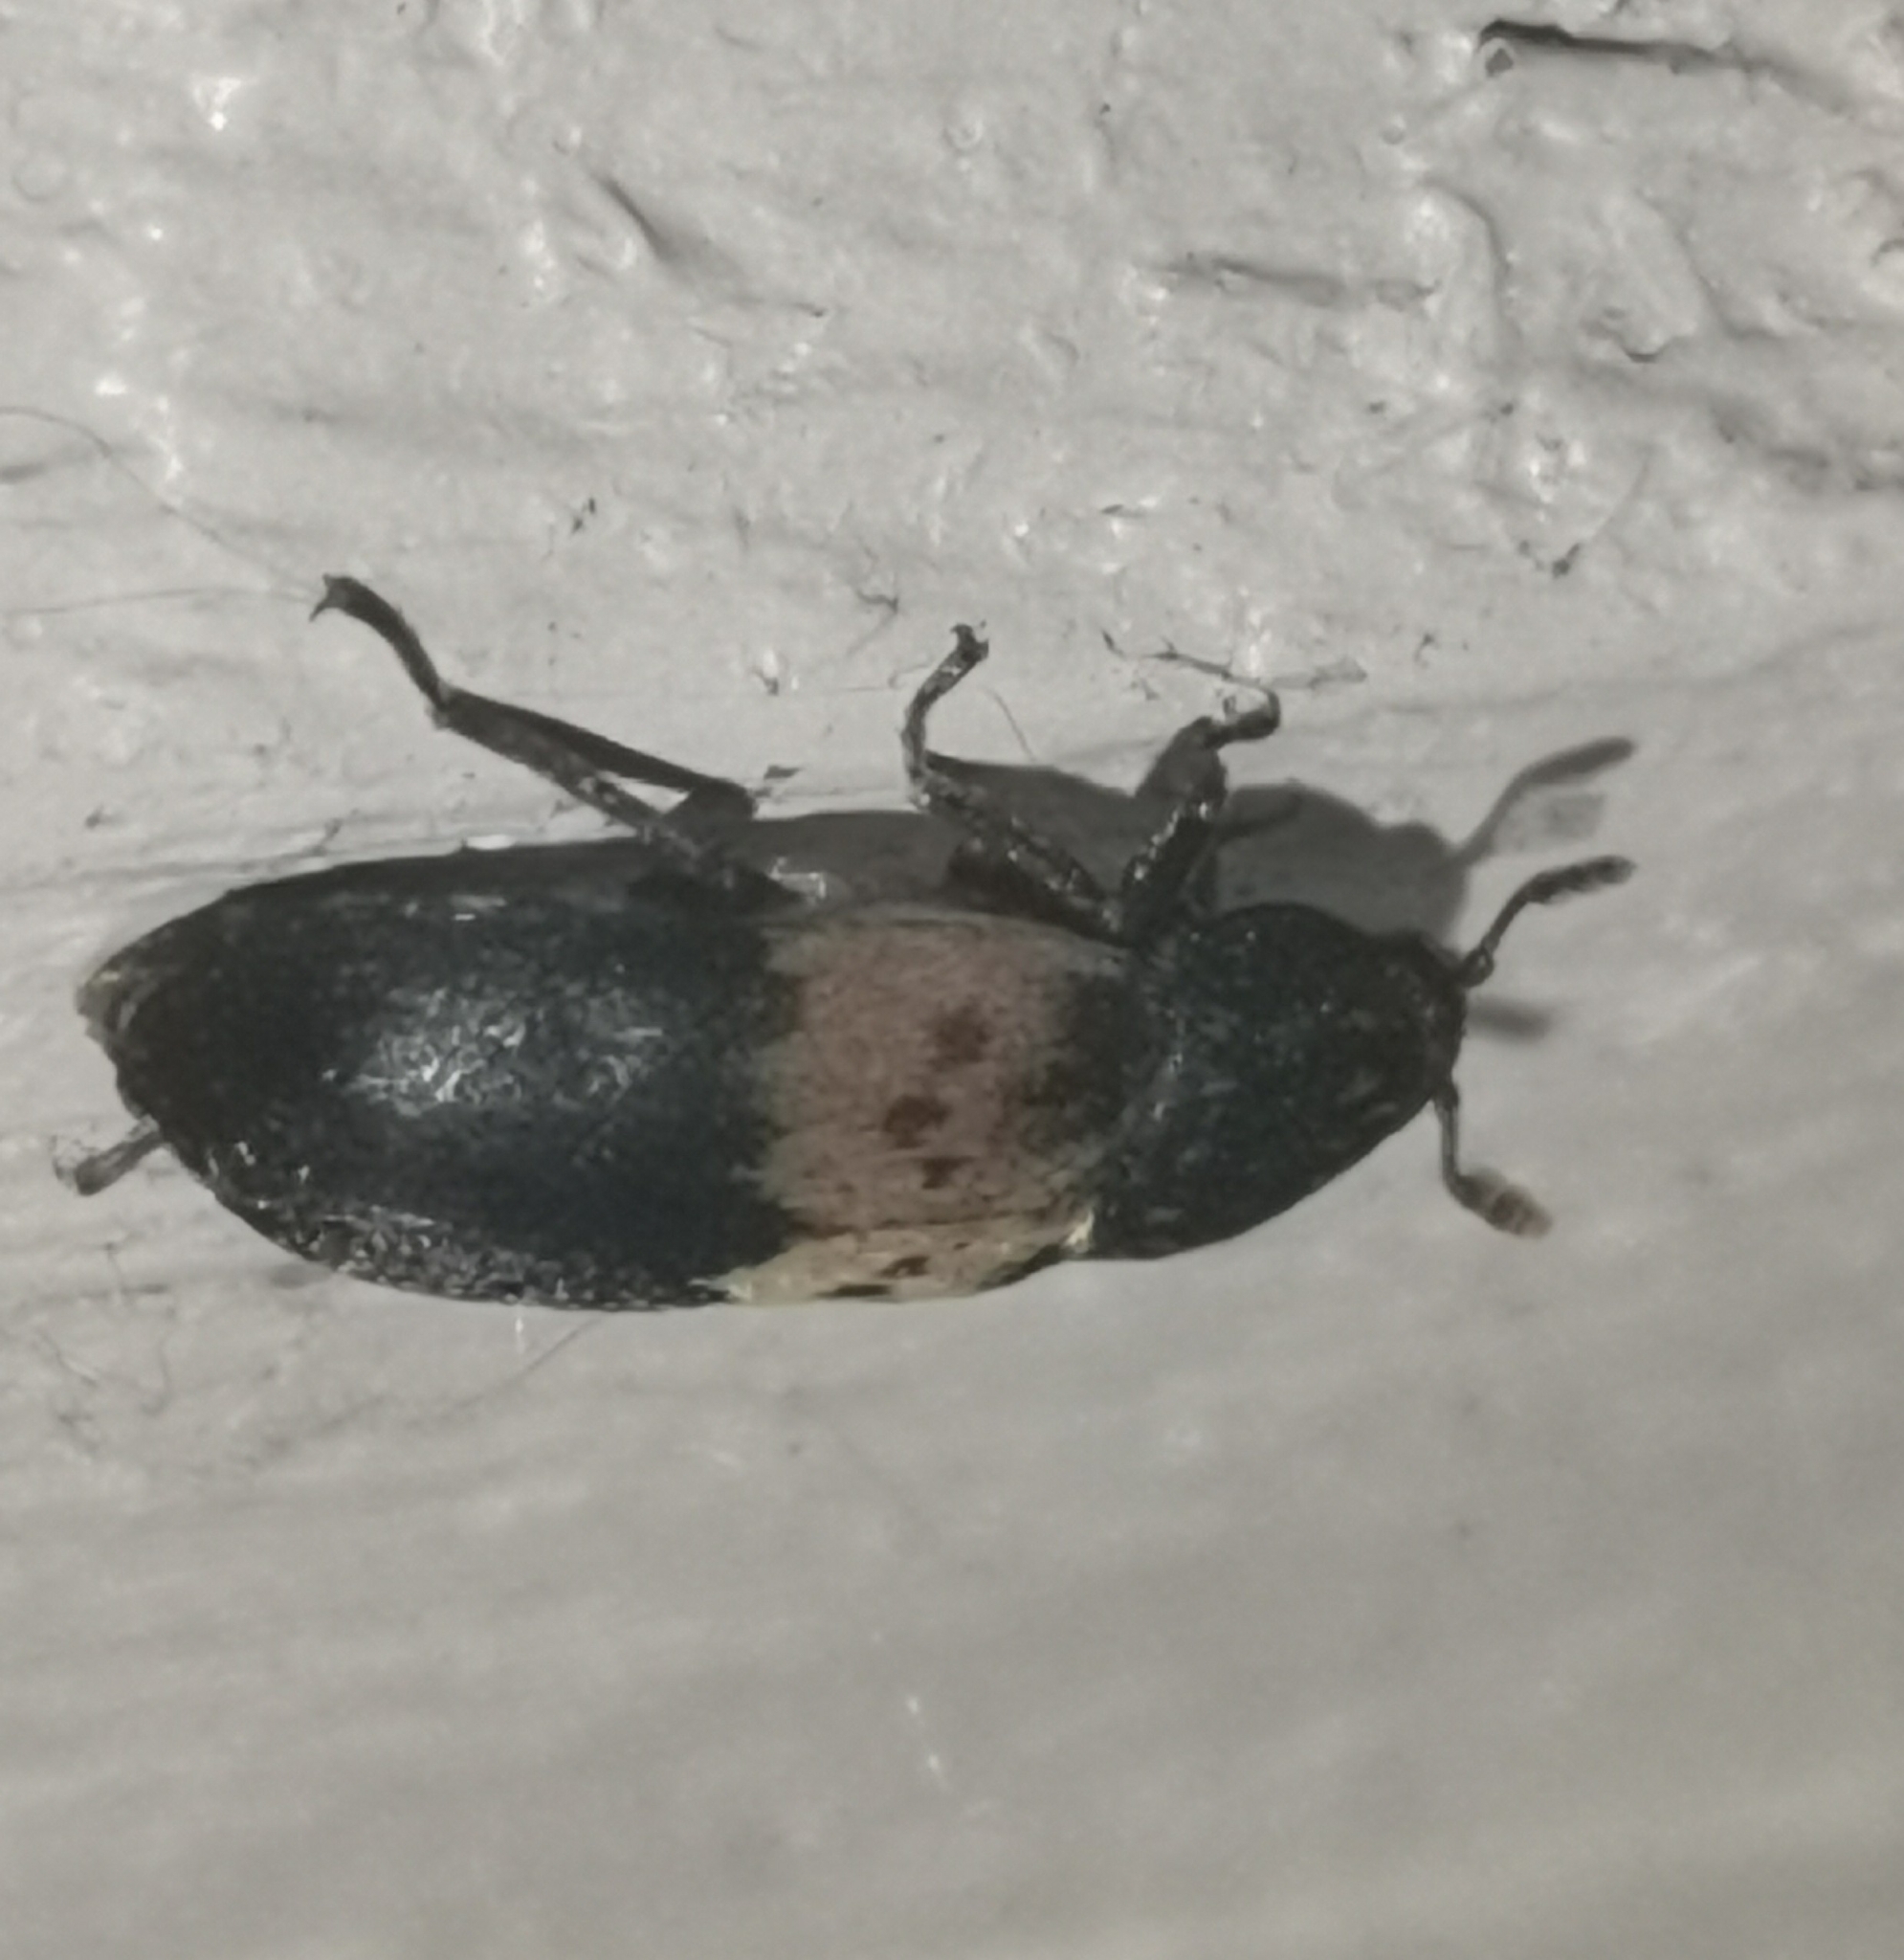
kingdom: Animalia
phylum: Arthropoda
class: Insecta
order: Coleoptera
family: Dermestidae
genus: Dermestes
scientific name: Dermestes lardarius
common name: Larder beetle
